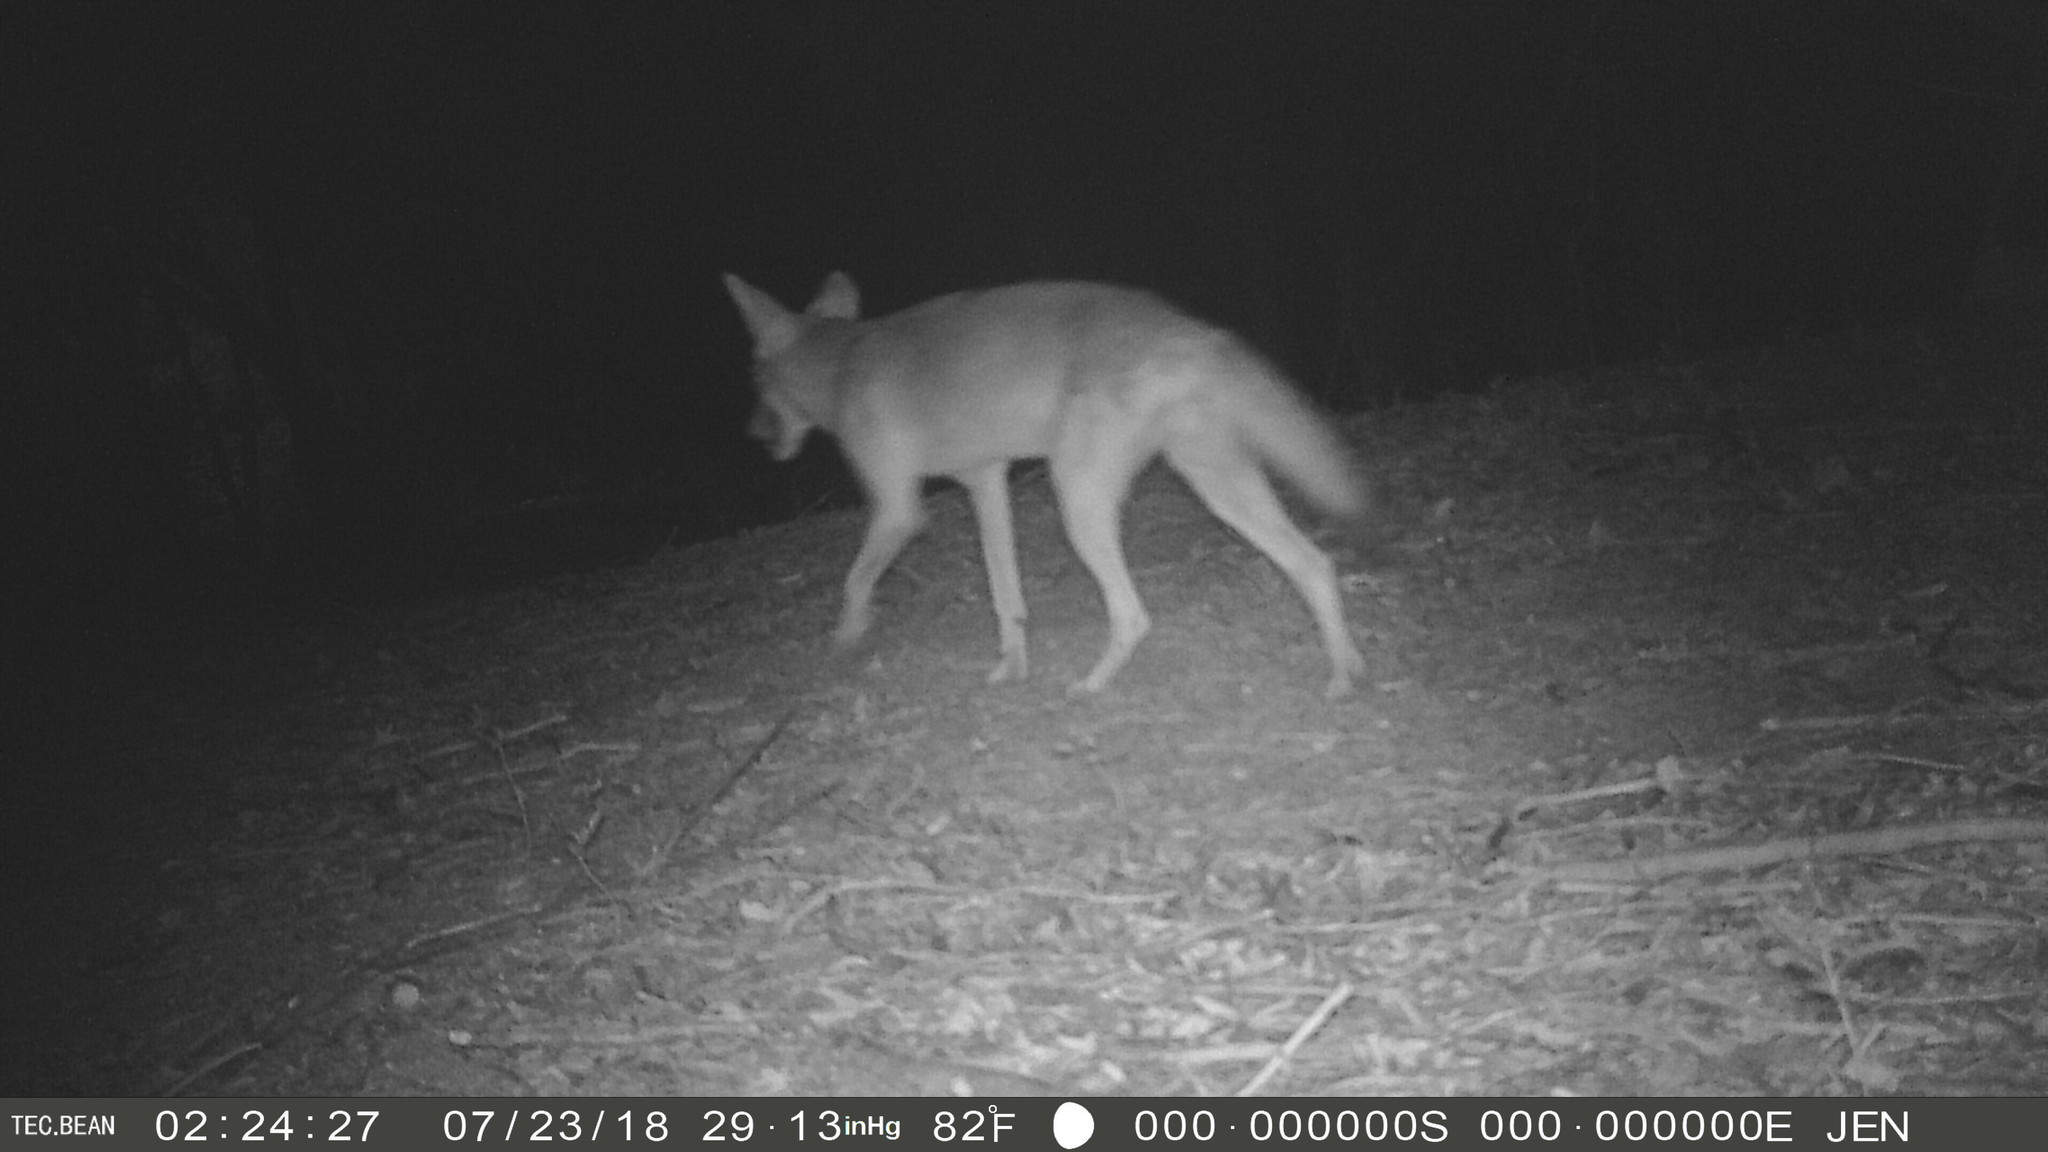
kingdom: Animalia
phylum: Chordata
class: Mammalia
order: Carnivora
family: Canidae
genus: Canis
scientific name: Canis latrans
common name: Coyote
